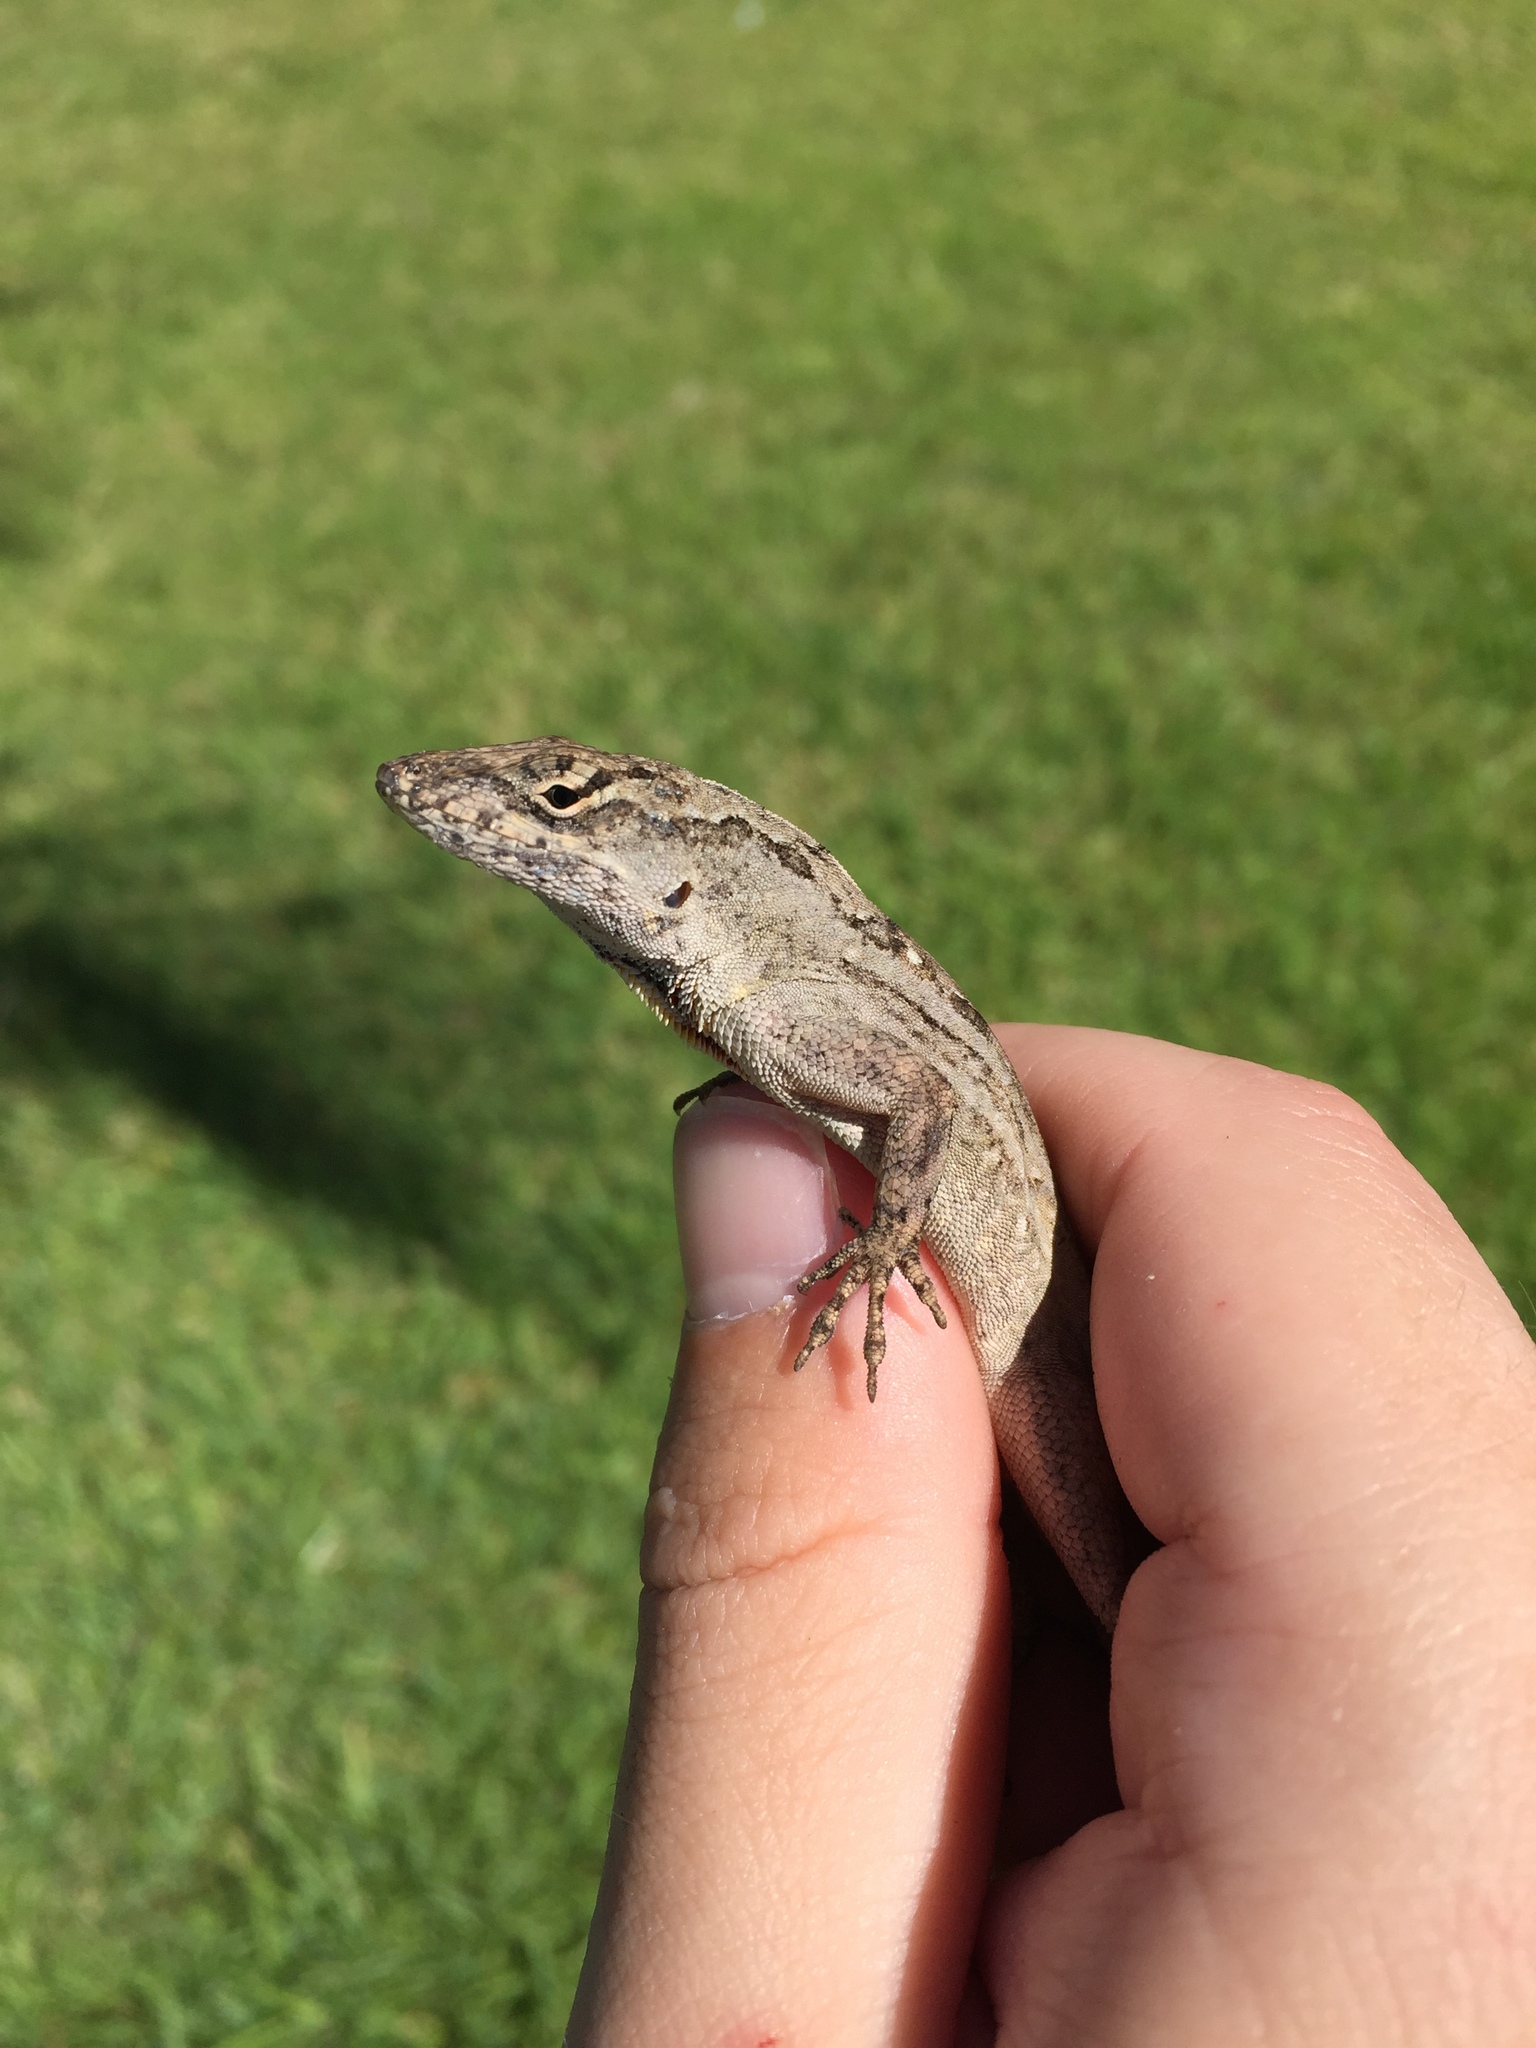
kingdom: Animalia
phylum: Chordata
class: Squamata
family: Dactyloidae
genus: Anolis
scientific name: Anolis sagrei
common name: Brown anole
